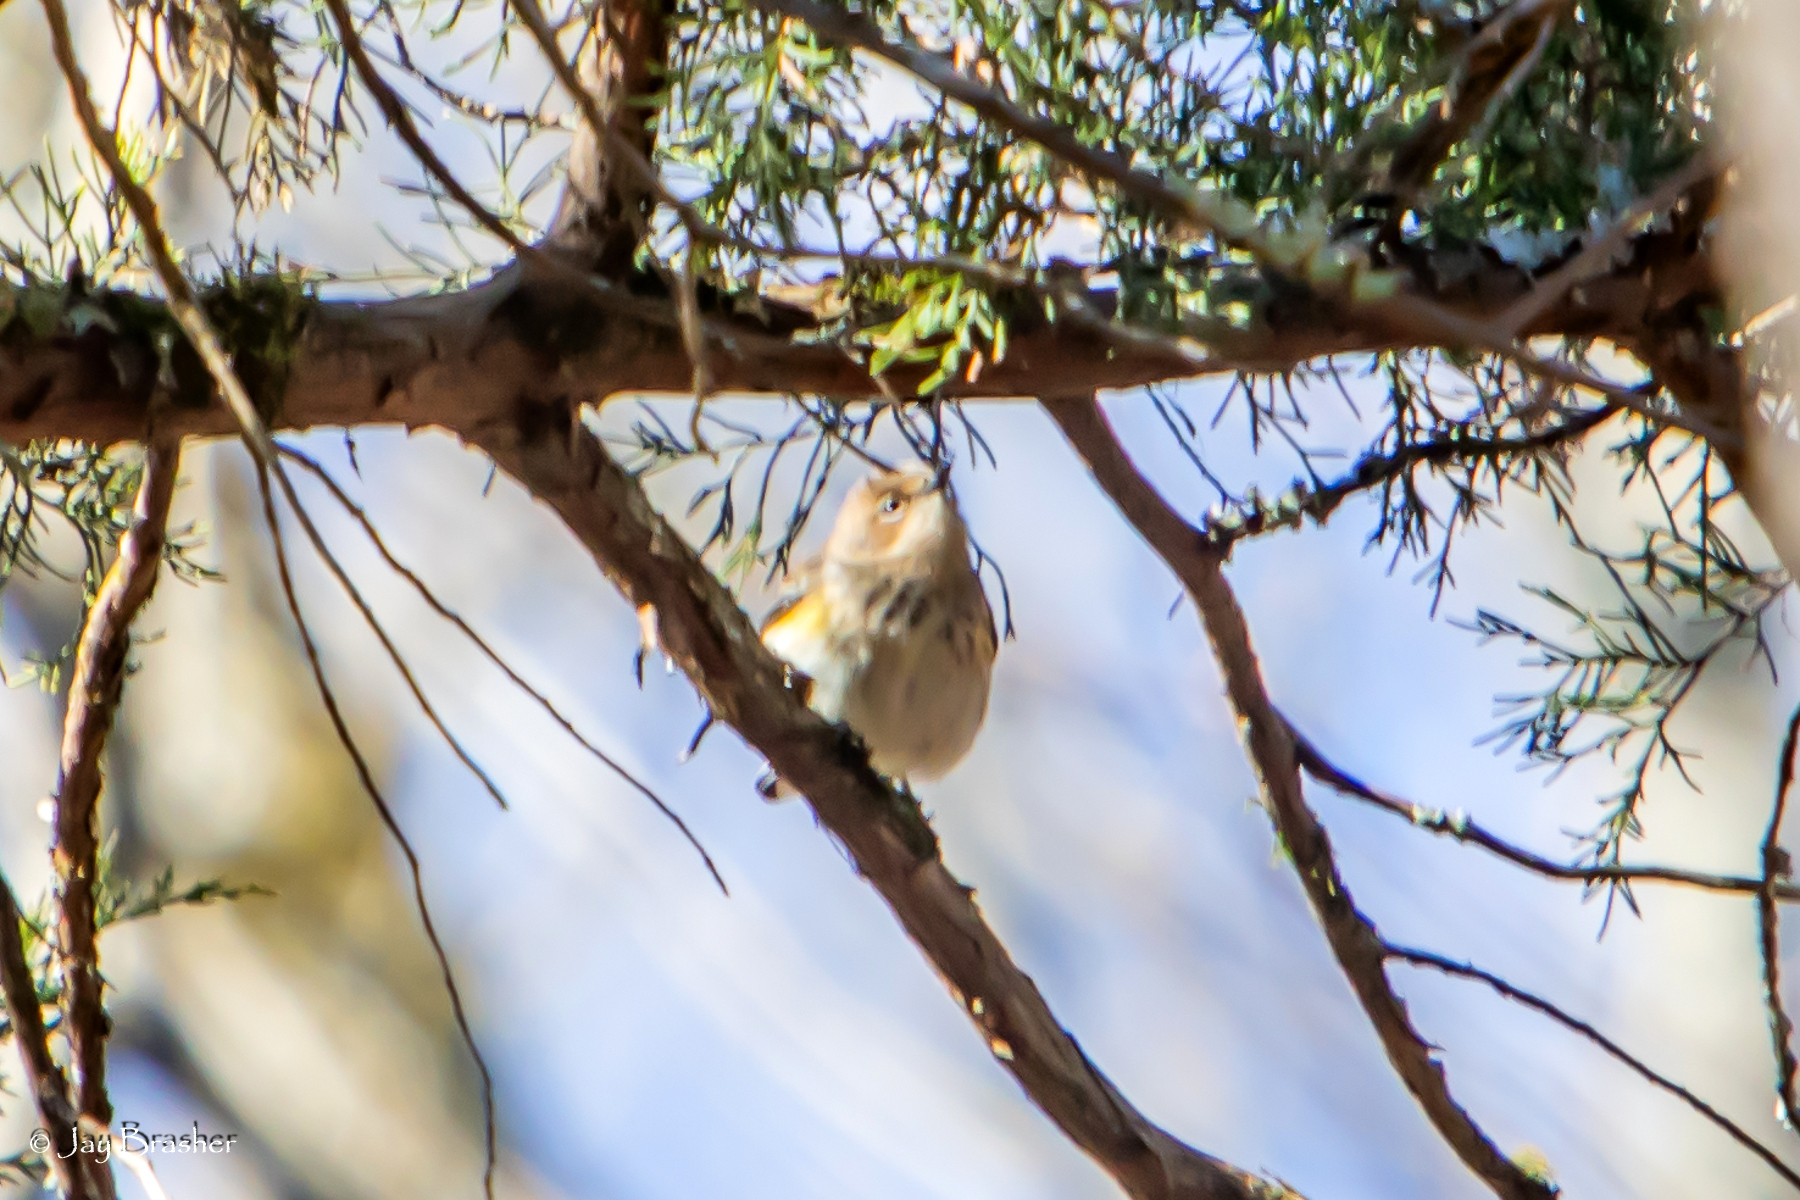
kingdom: Animalia
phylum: Chordata
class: Aves
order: Passeriformes
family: Parulidae
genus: Setophaga
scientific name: Setophaga coronata
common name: Myrtle warbler
